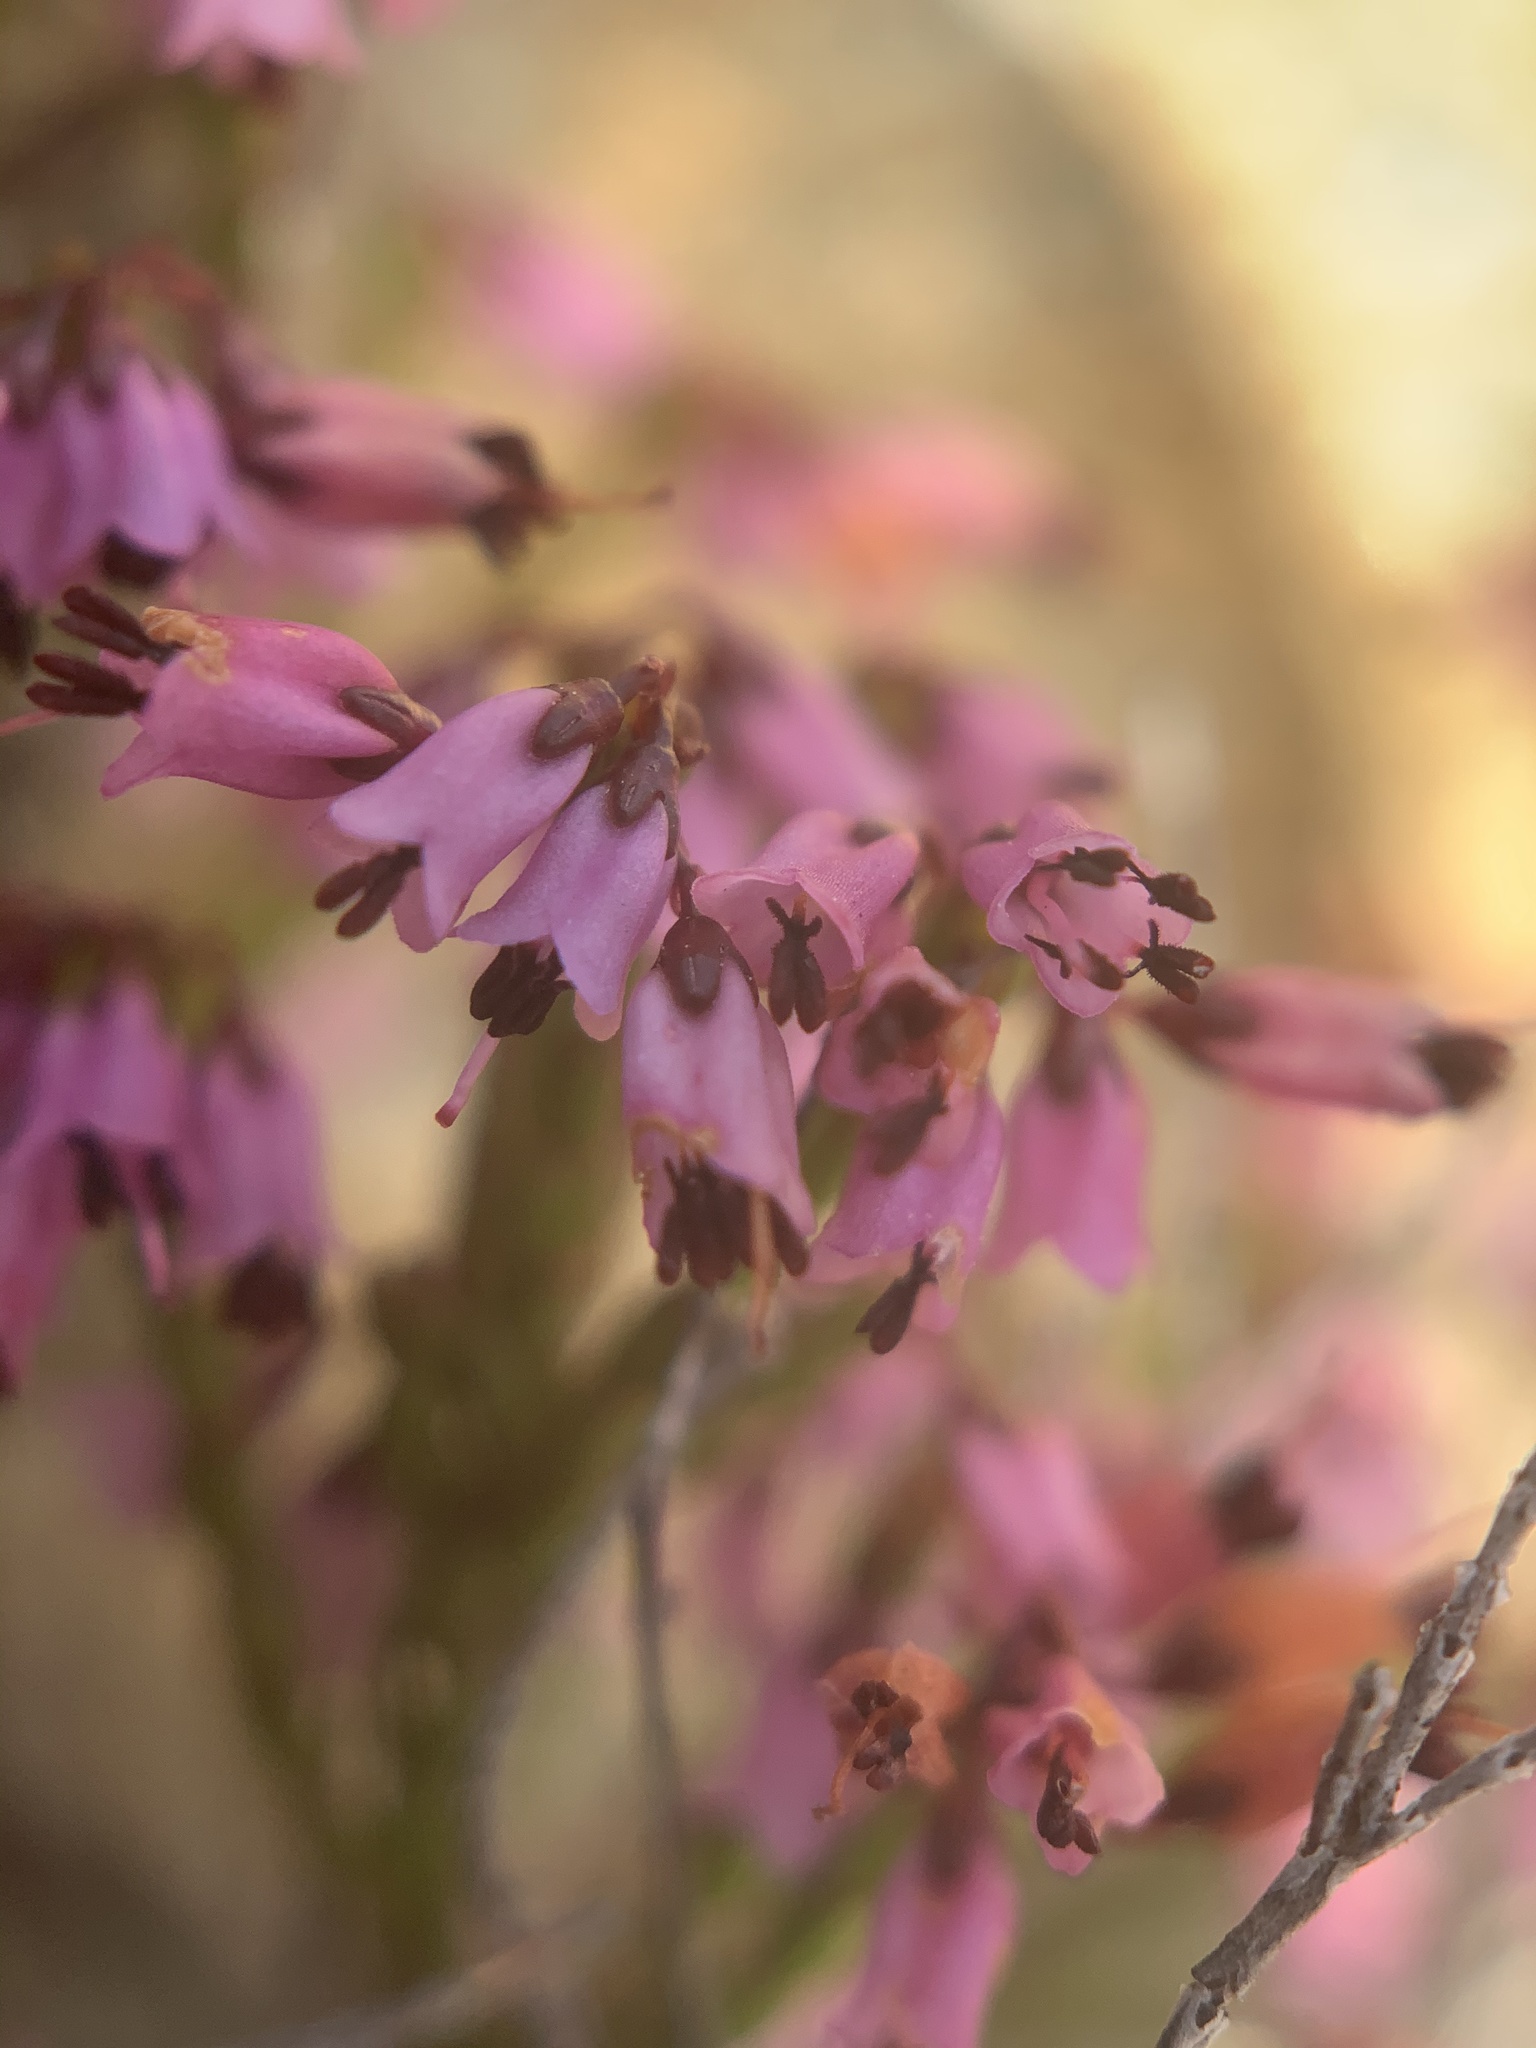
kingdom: Plantae
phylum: Tracheophyta
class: Magnoliopsida
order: Ericales
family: Ericaceae
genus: Erica
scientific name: Erica equisetifolia
